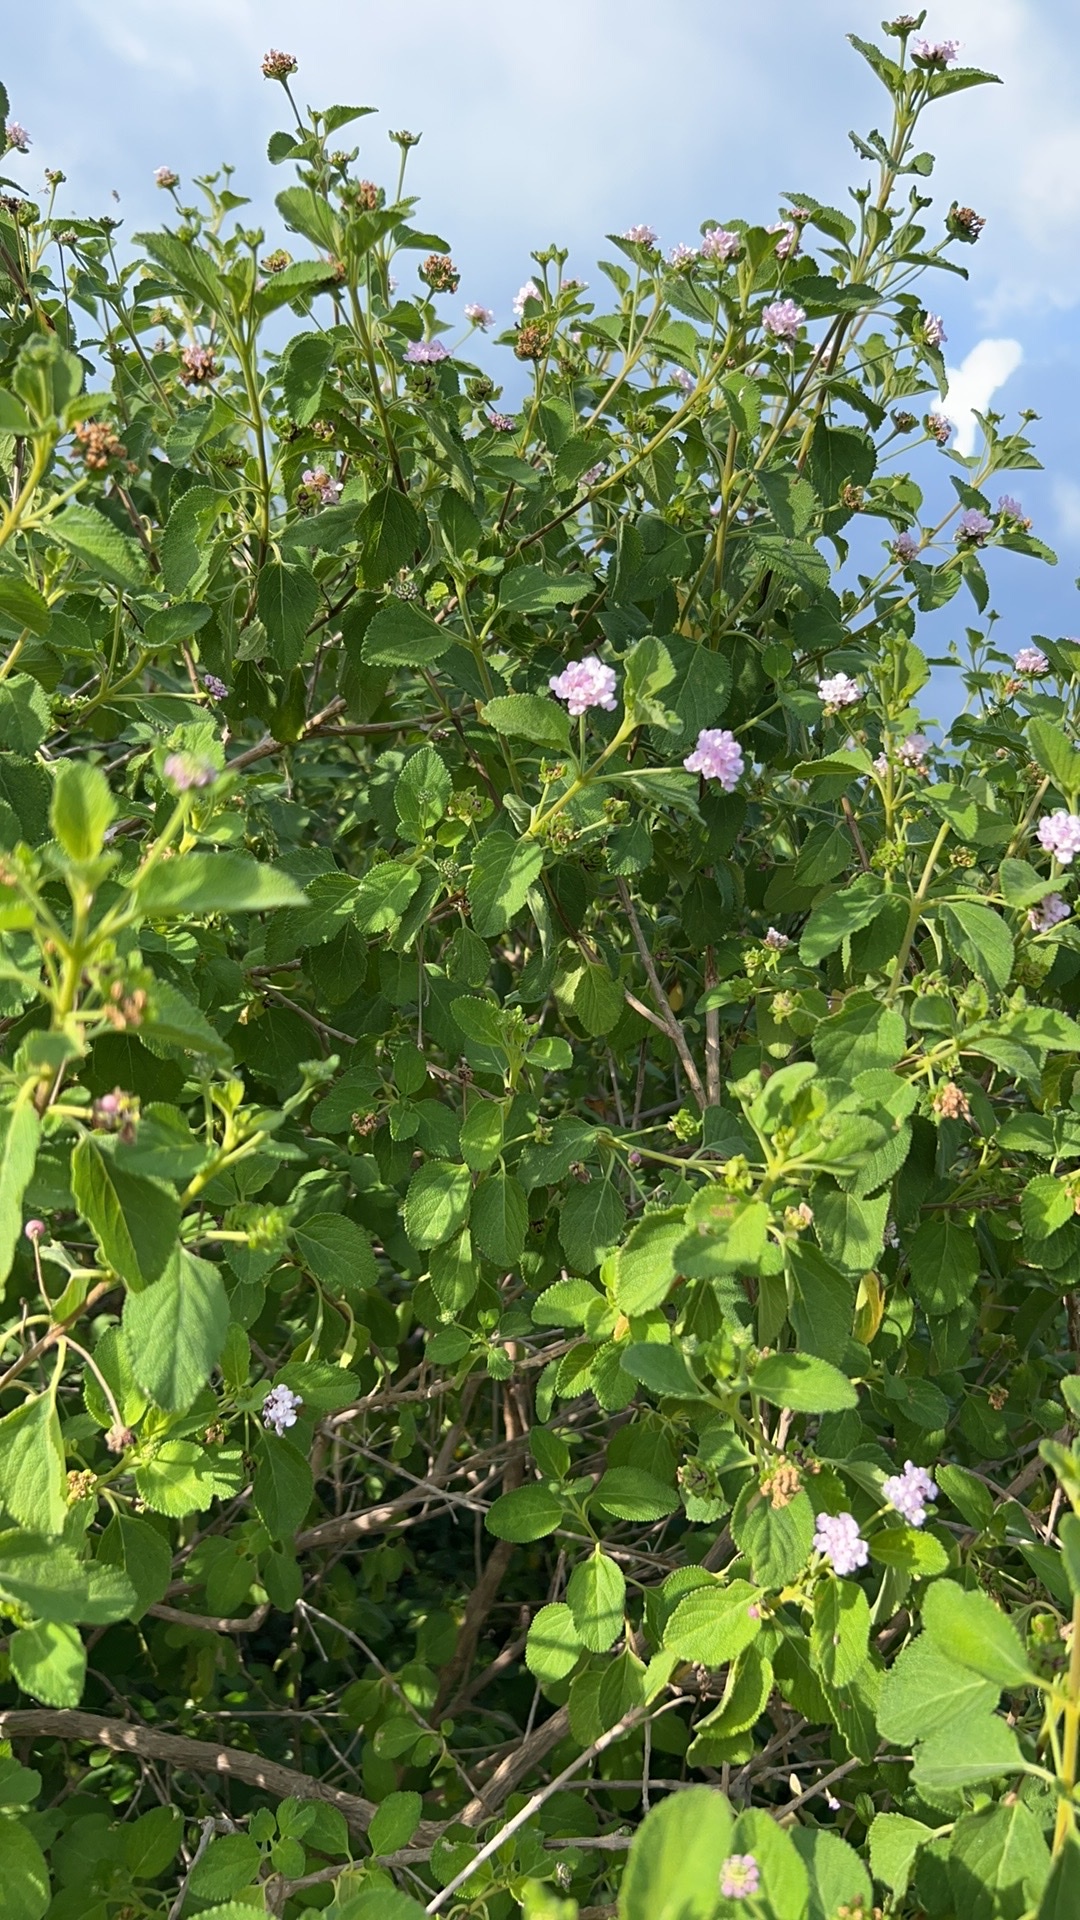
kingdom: Plantae
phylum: Tracheophyta
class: Magnoliopsida
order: Lamiales
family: Verbenaceae
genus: Lantana
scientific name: Lantana involucrata
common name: Black sage
